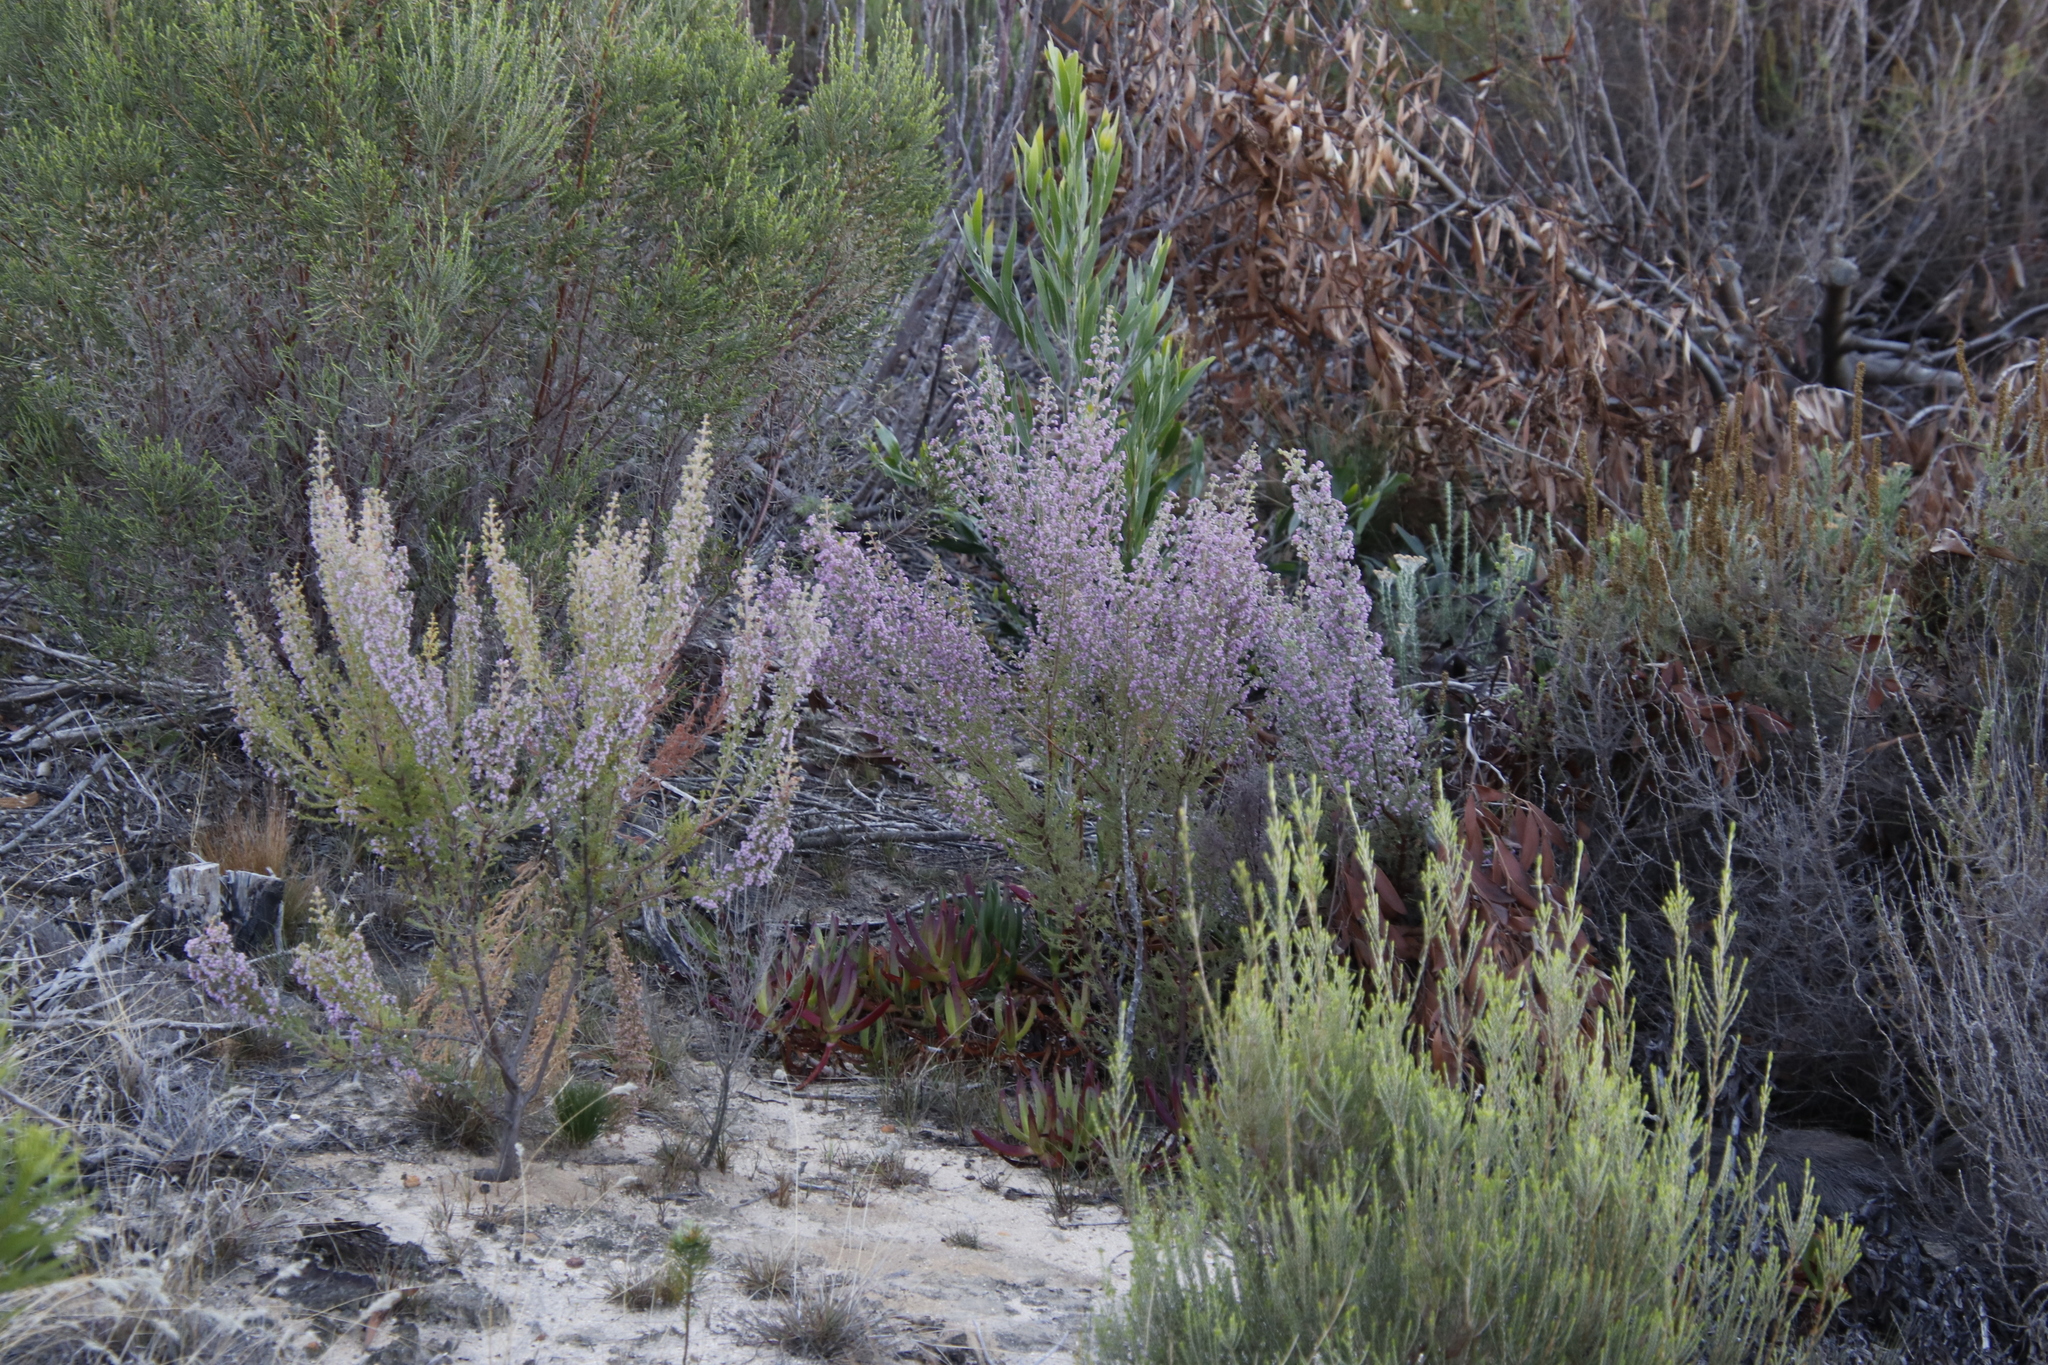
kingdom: Plantae
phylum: Tracheophyta
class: Magnoliopsida
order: Ericales
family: Ericaceae
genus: Erica
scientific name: Erica hirtiflora
